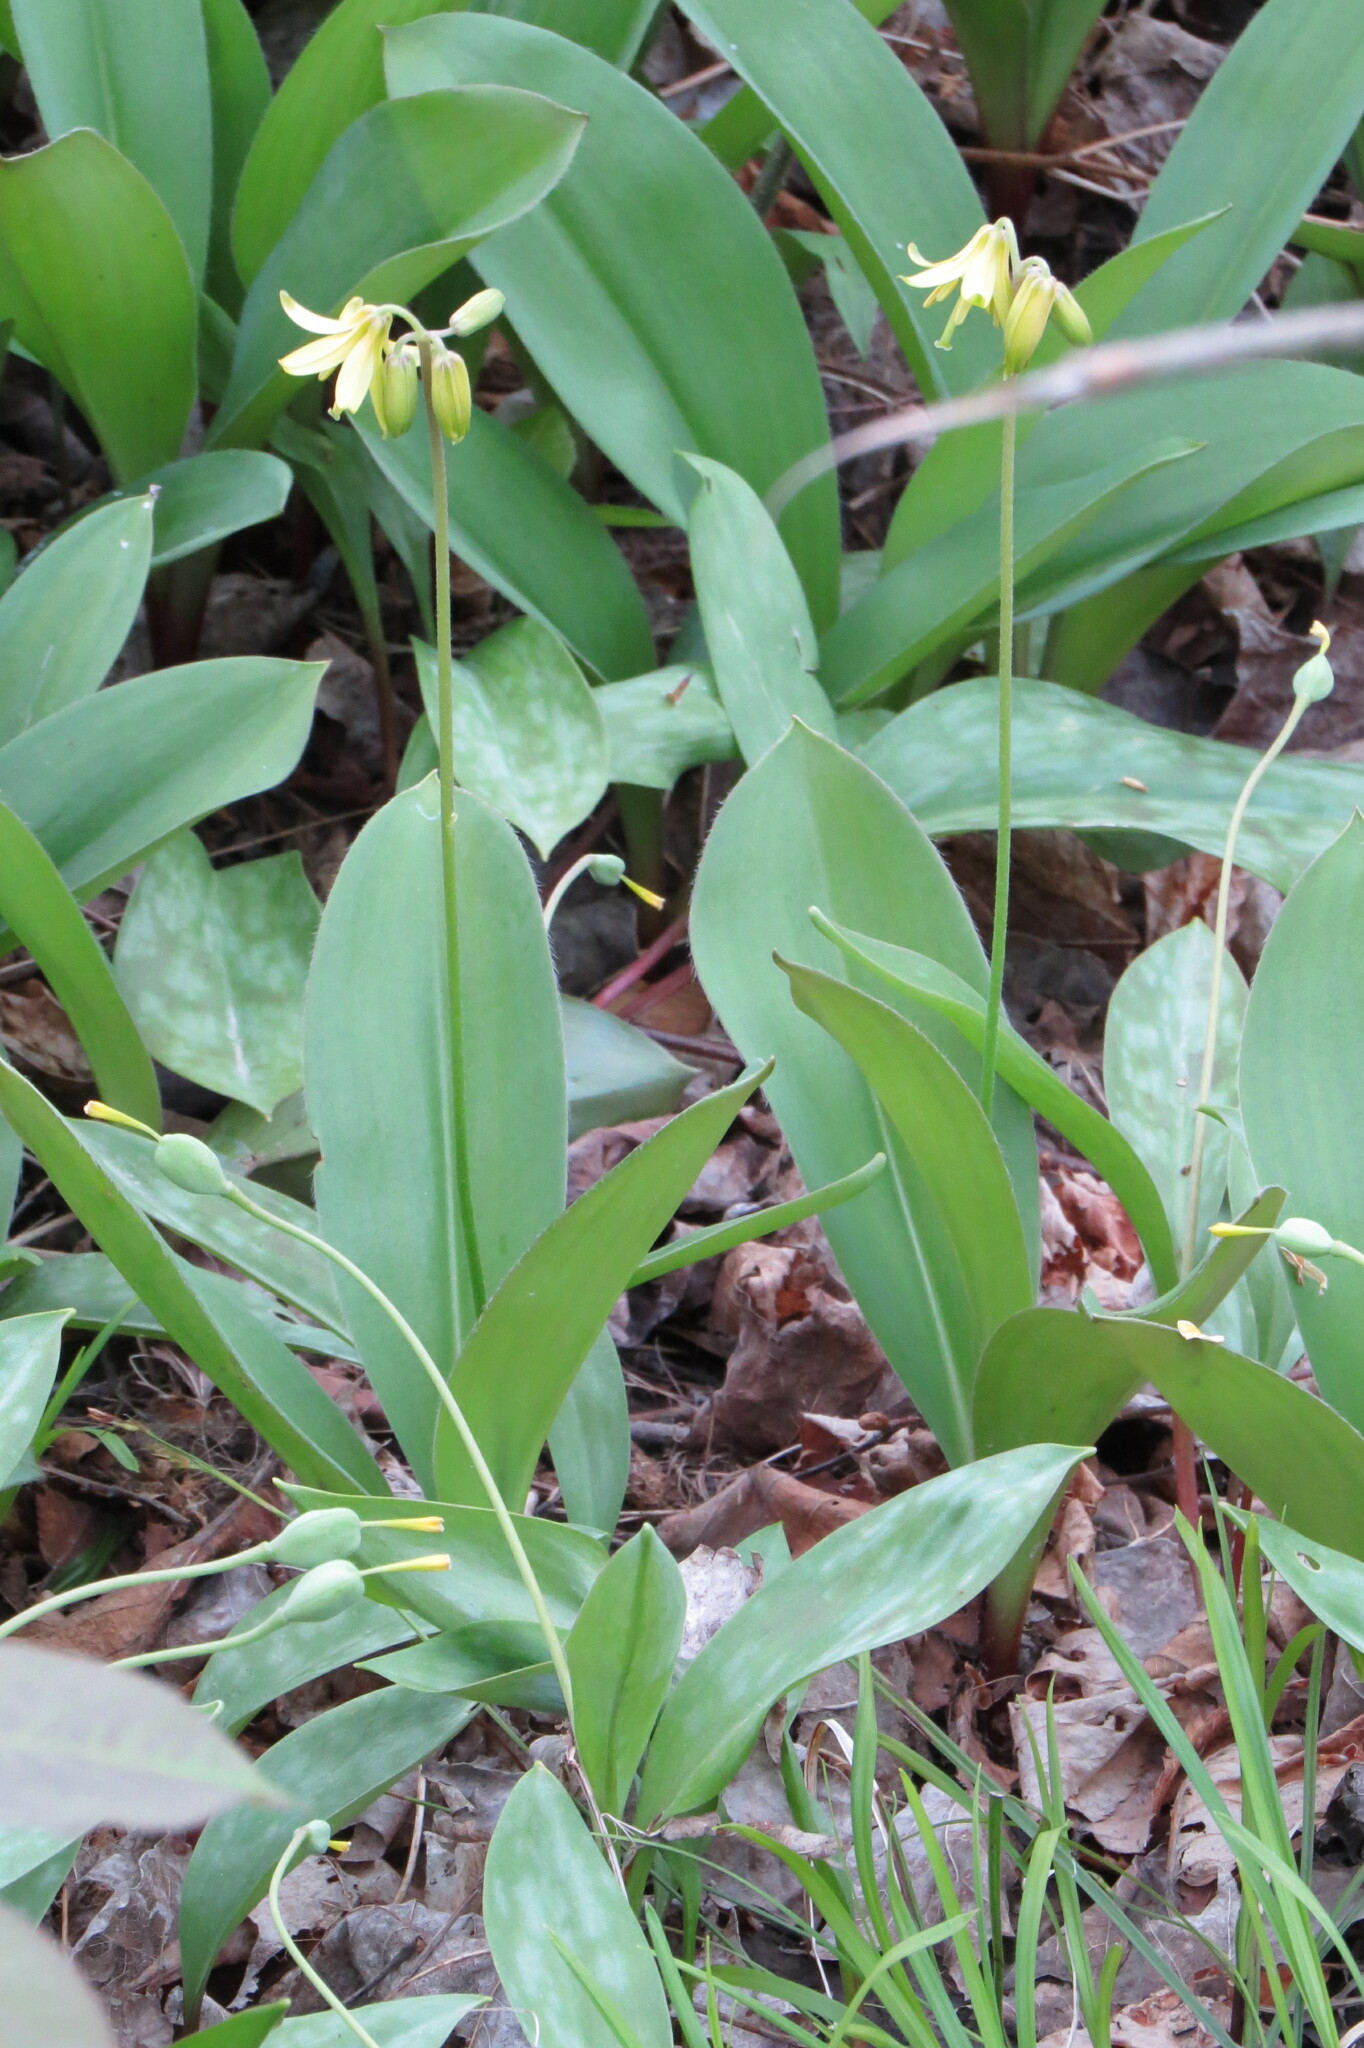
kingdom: Plantae
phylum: Tracheophyta
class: Liliopsida
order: Liliales
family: Liliaceae
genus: Clintonia
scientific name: Clintonia borealis
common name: Yellow clintonia
